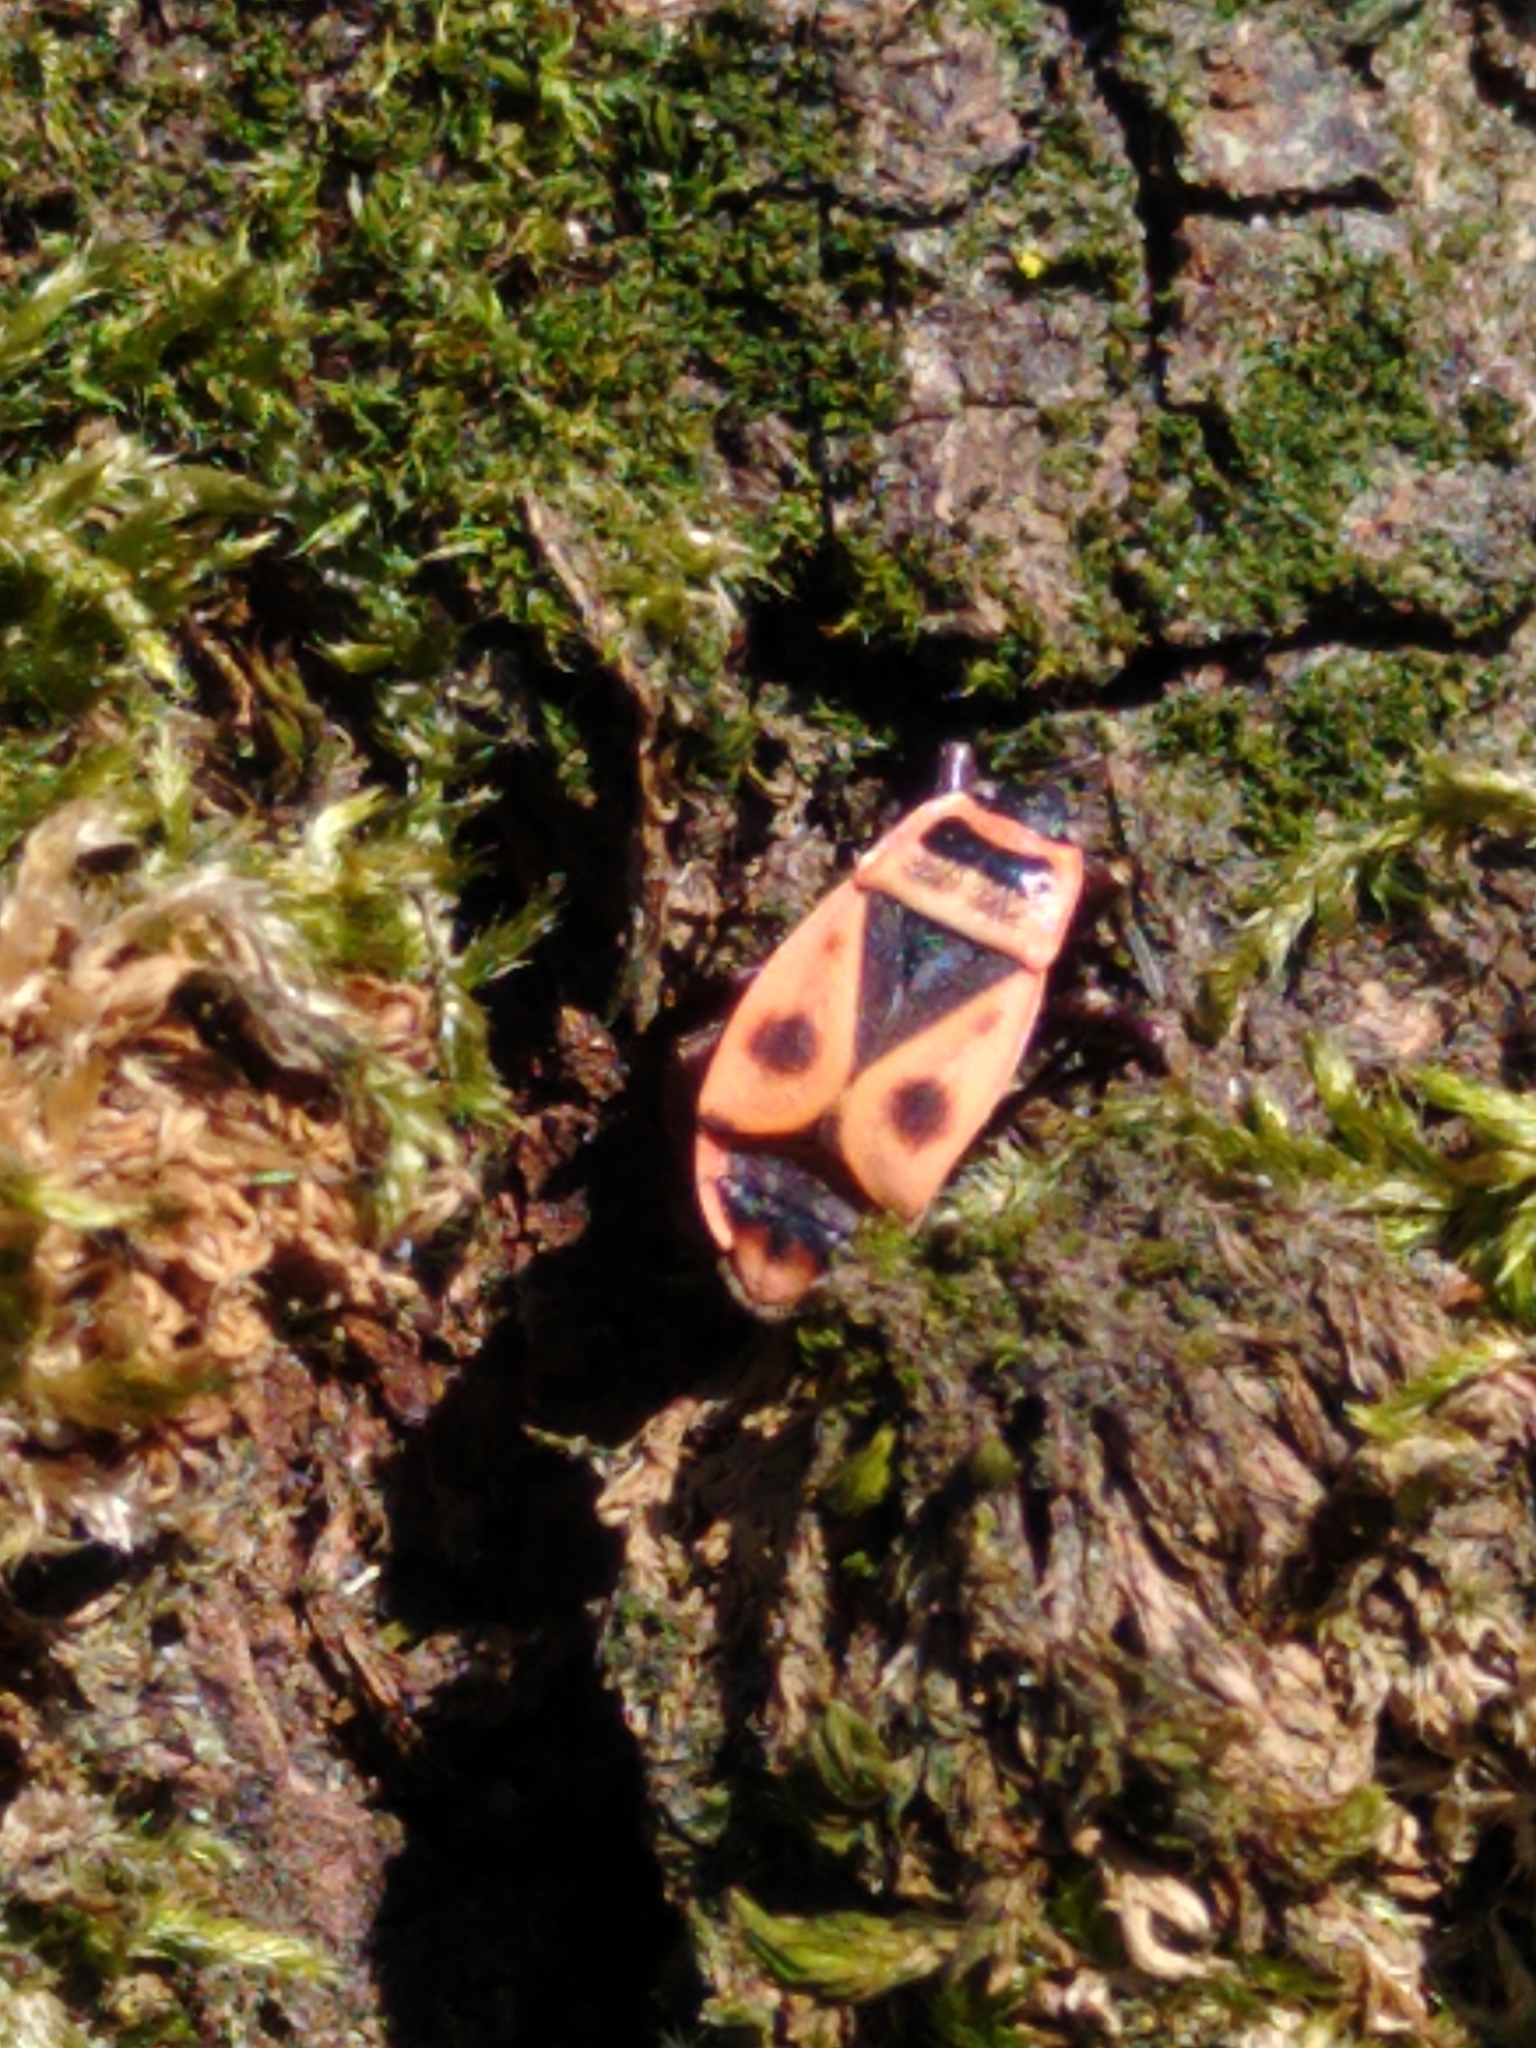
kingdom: Animalia
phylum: Arthropoda
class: Insecta
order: Hemiptera
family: Pyrrhocoridae
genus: Pyrrhocoris
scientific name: Pyrrhocoris apterus
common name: Firebug
